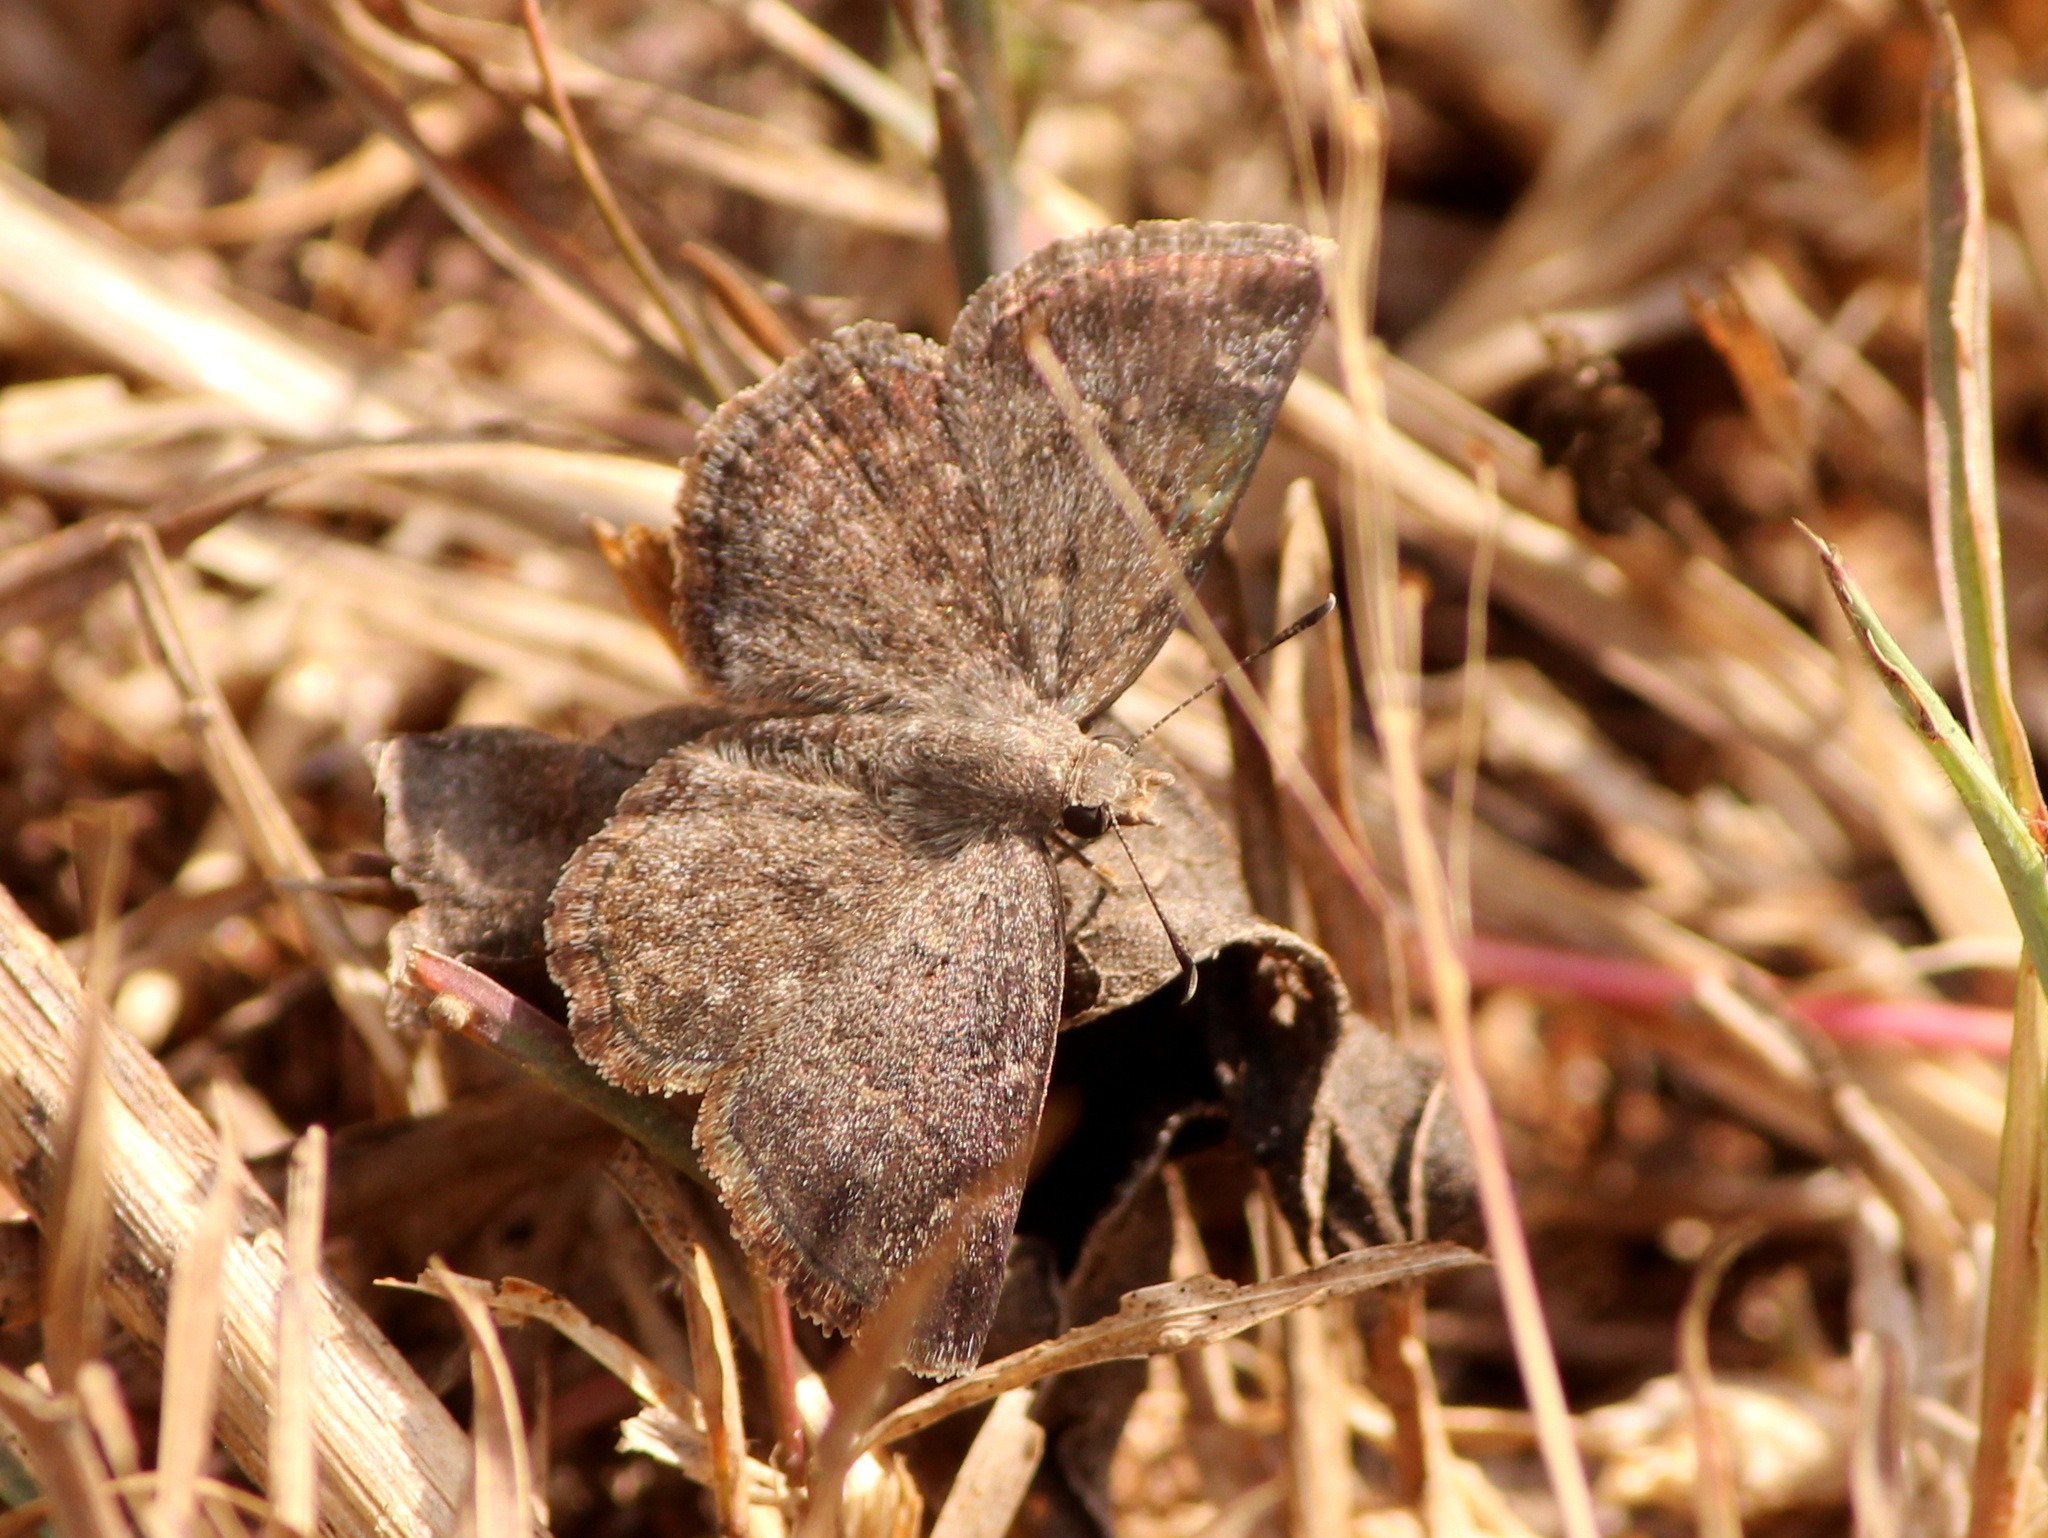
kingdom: Animalia
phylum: Arthropoda
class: Insecta
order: Lepidoptera
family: Hesperiidae
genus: Sarangesa
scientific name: Sarangesa purendra
